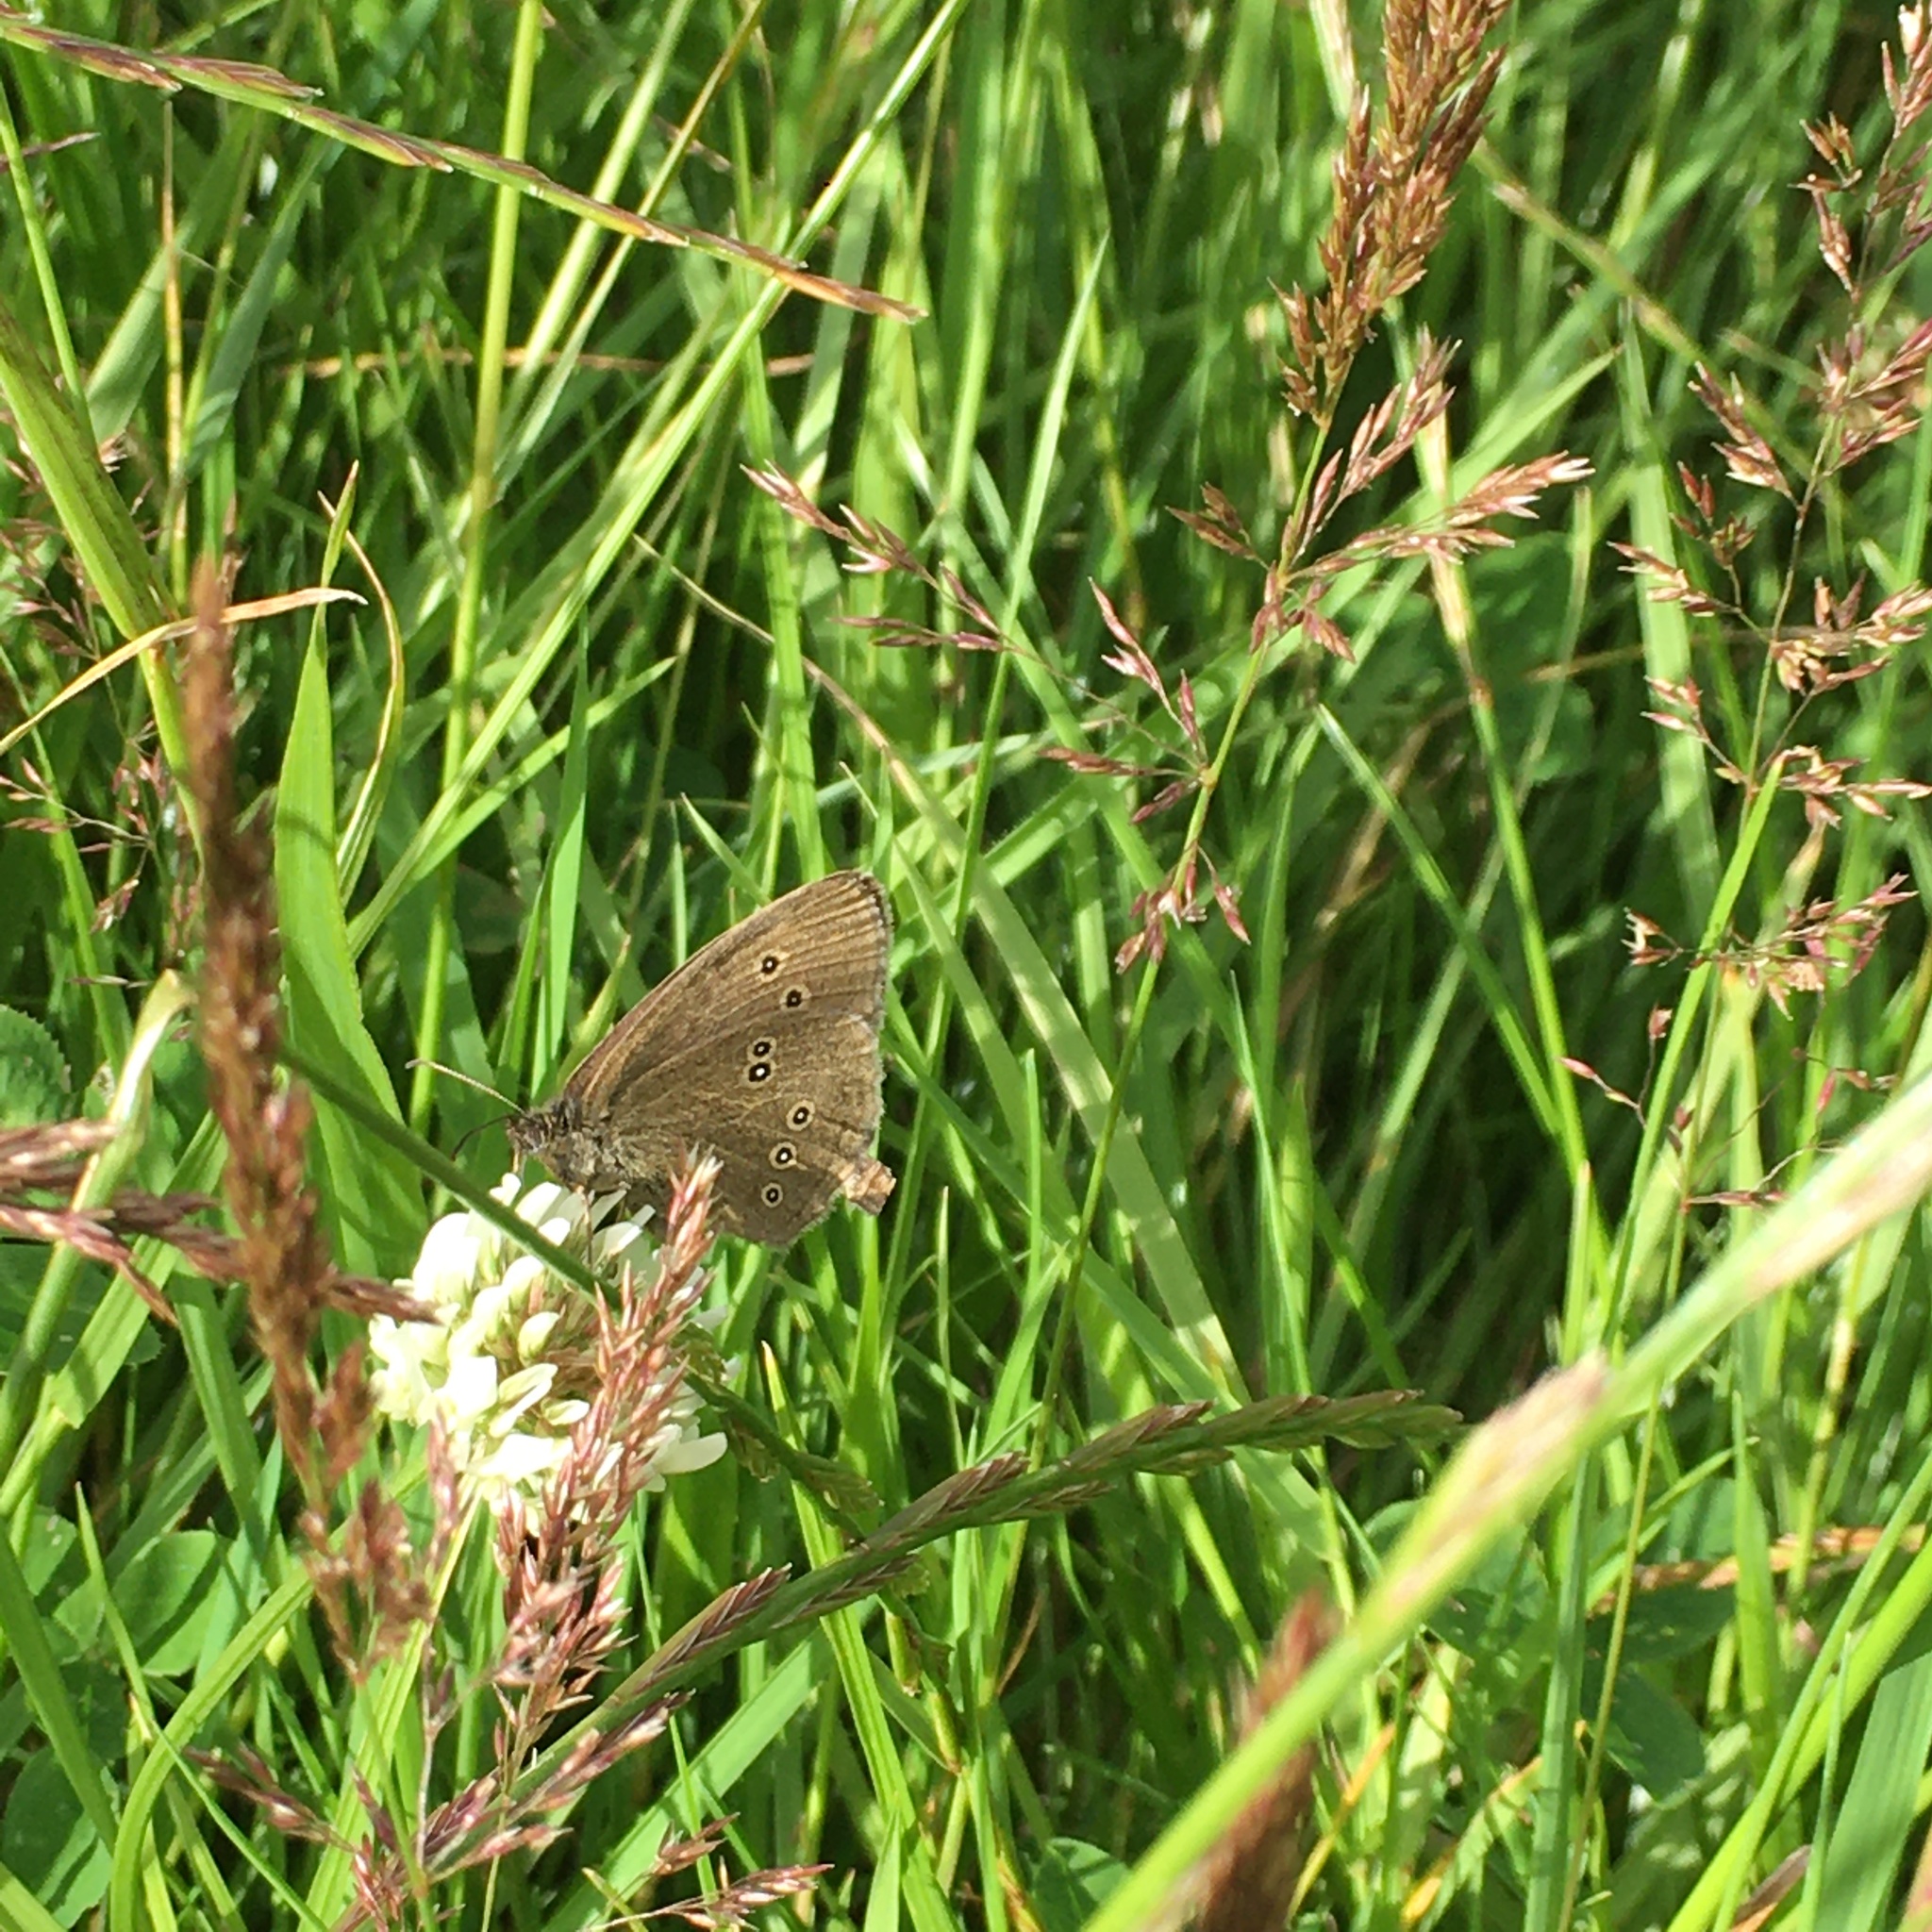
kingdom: Animalia
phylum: Arthropoda
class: Insecta
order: Lepidoptera
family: Nymphalidae
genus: Aphantopus
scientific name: Aphantopus hyperantus
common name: Ringlet
